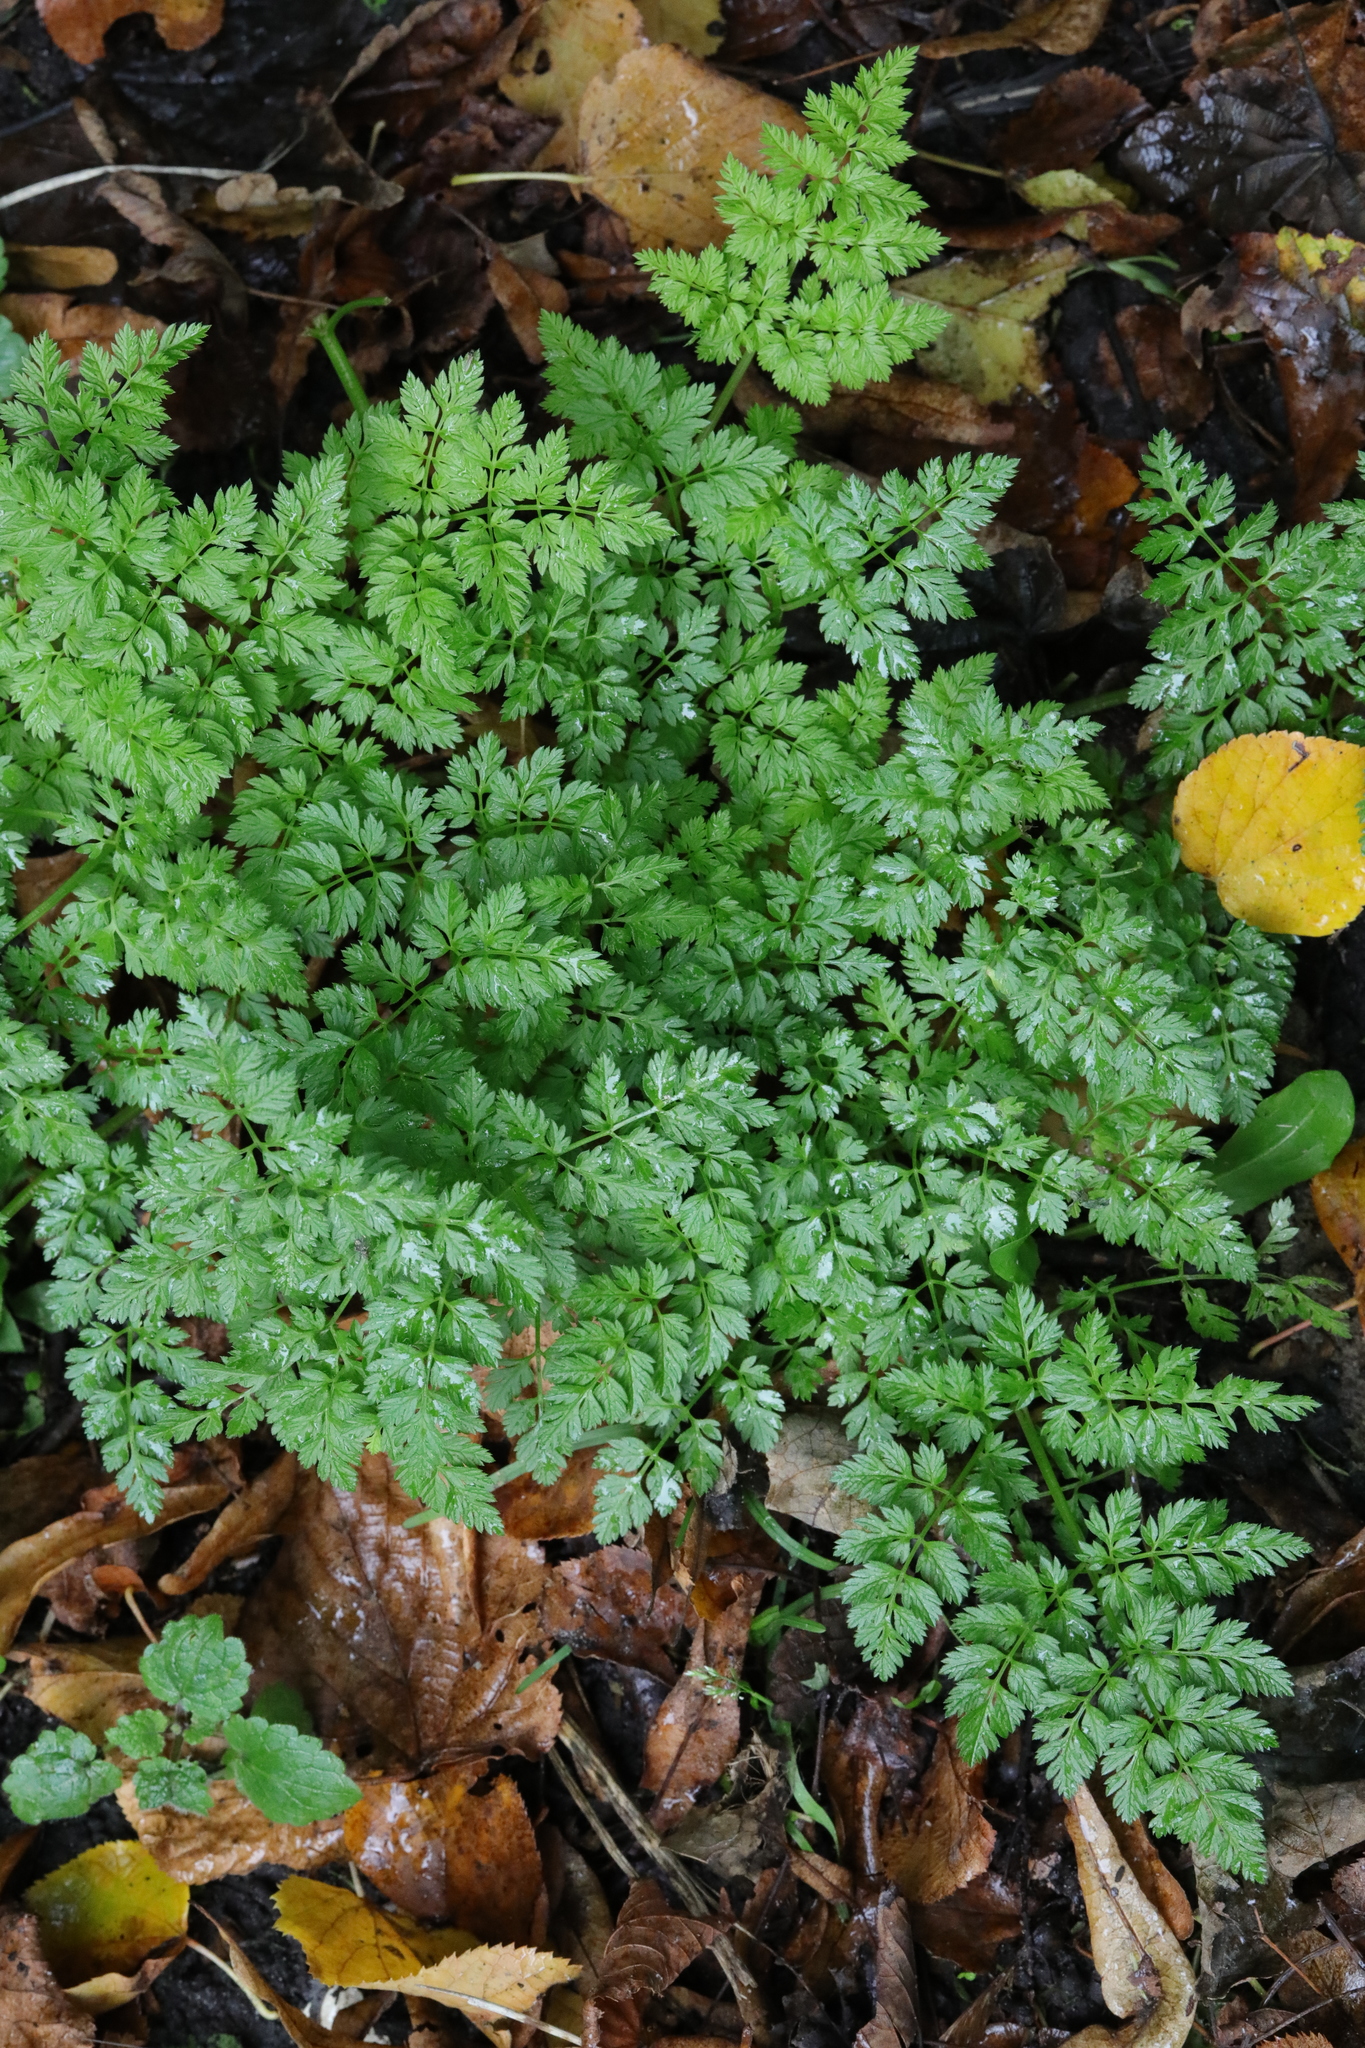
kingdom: Plantae
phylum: Tracheophyta
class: Magnoliopsida
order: Apiales
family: Apiaceae
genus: Anthriscus
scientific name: Anthriscus sylvestris
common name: Cow parsley
